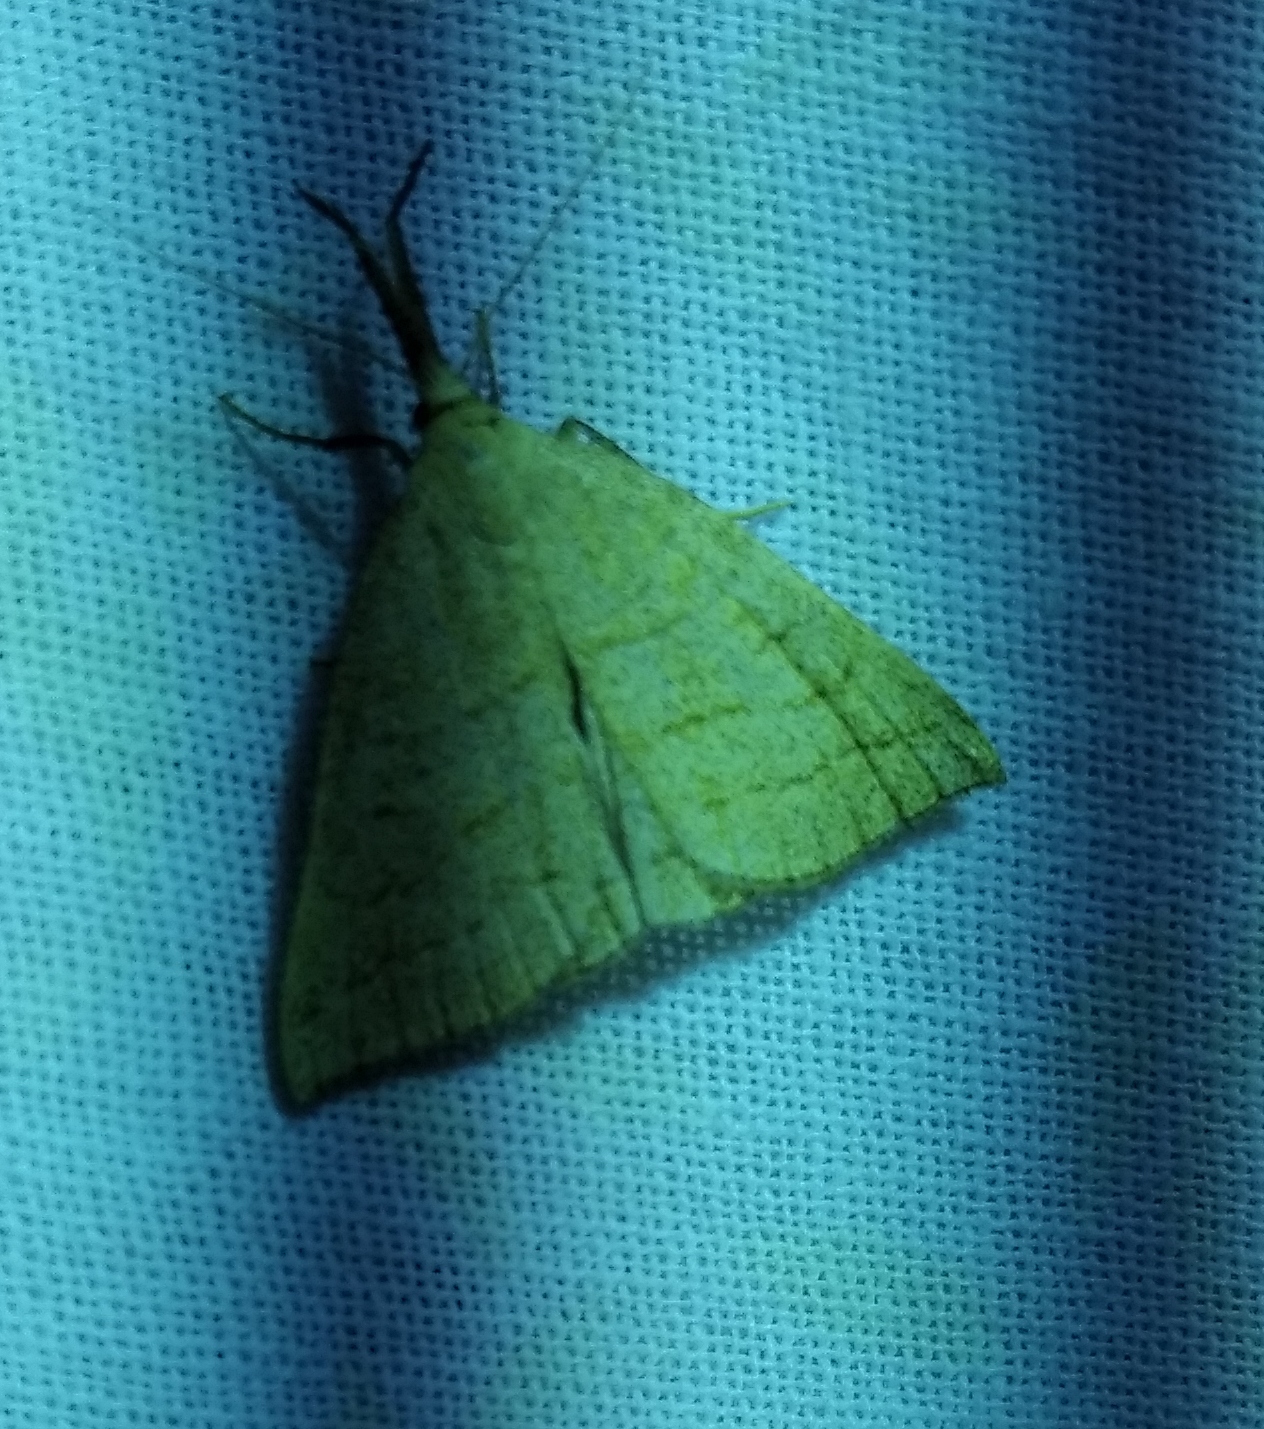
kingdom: Animalia
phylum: Arthropoda
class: Insecta
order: Lepidoptera
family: Erebidae
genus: Polypogon
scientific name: Polypogon tentacularia
